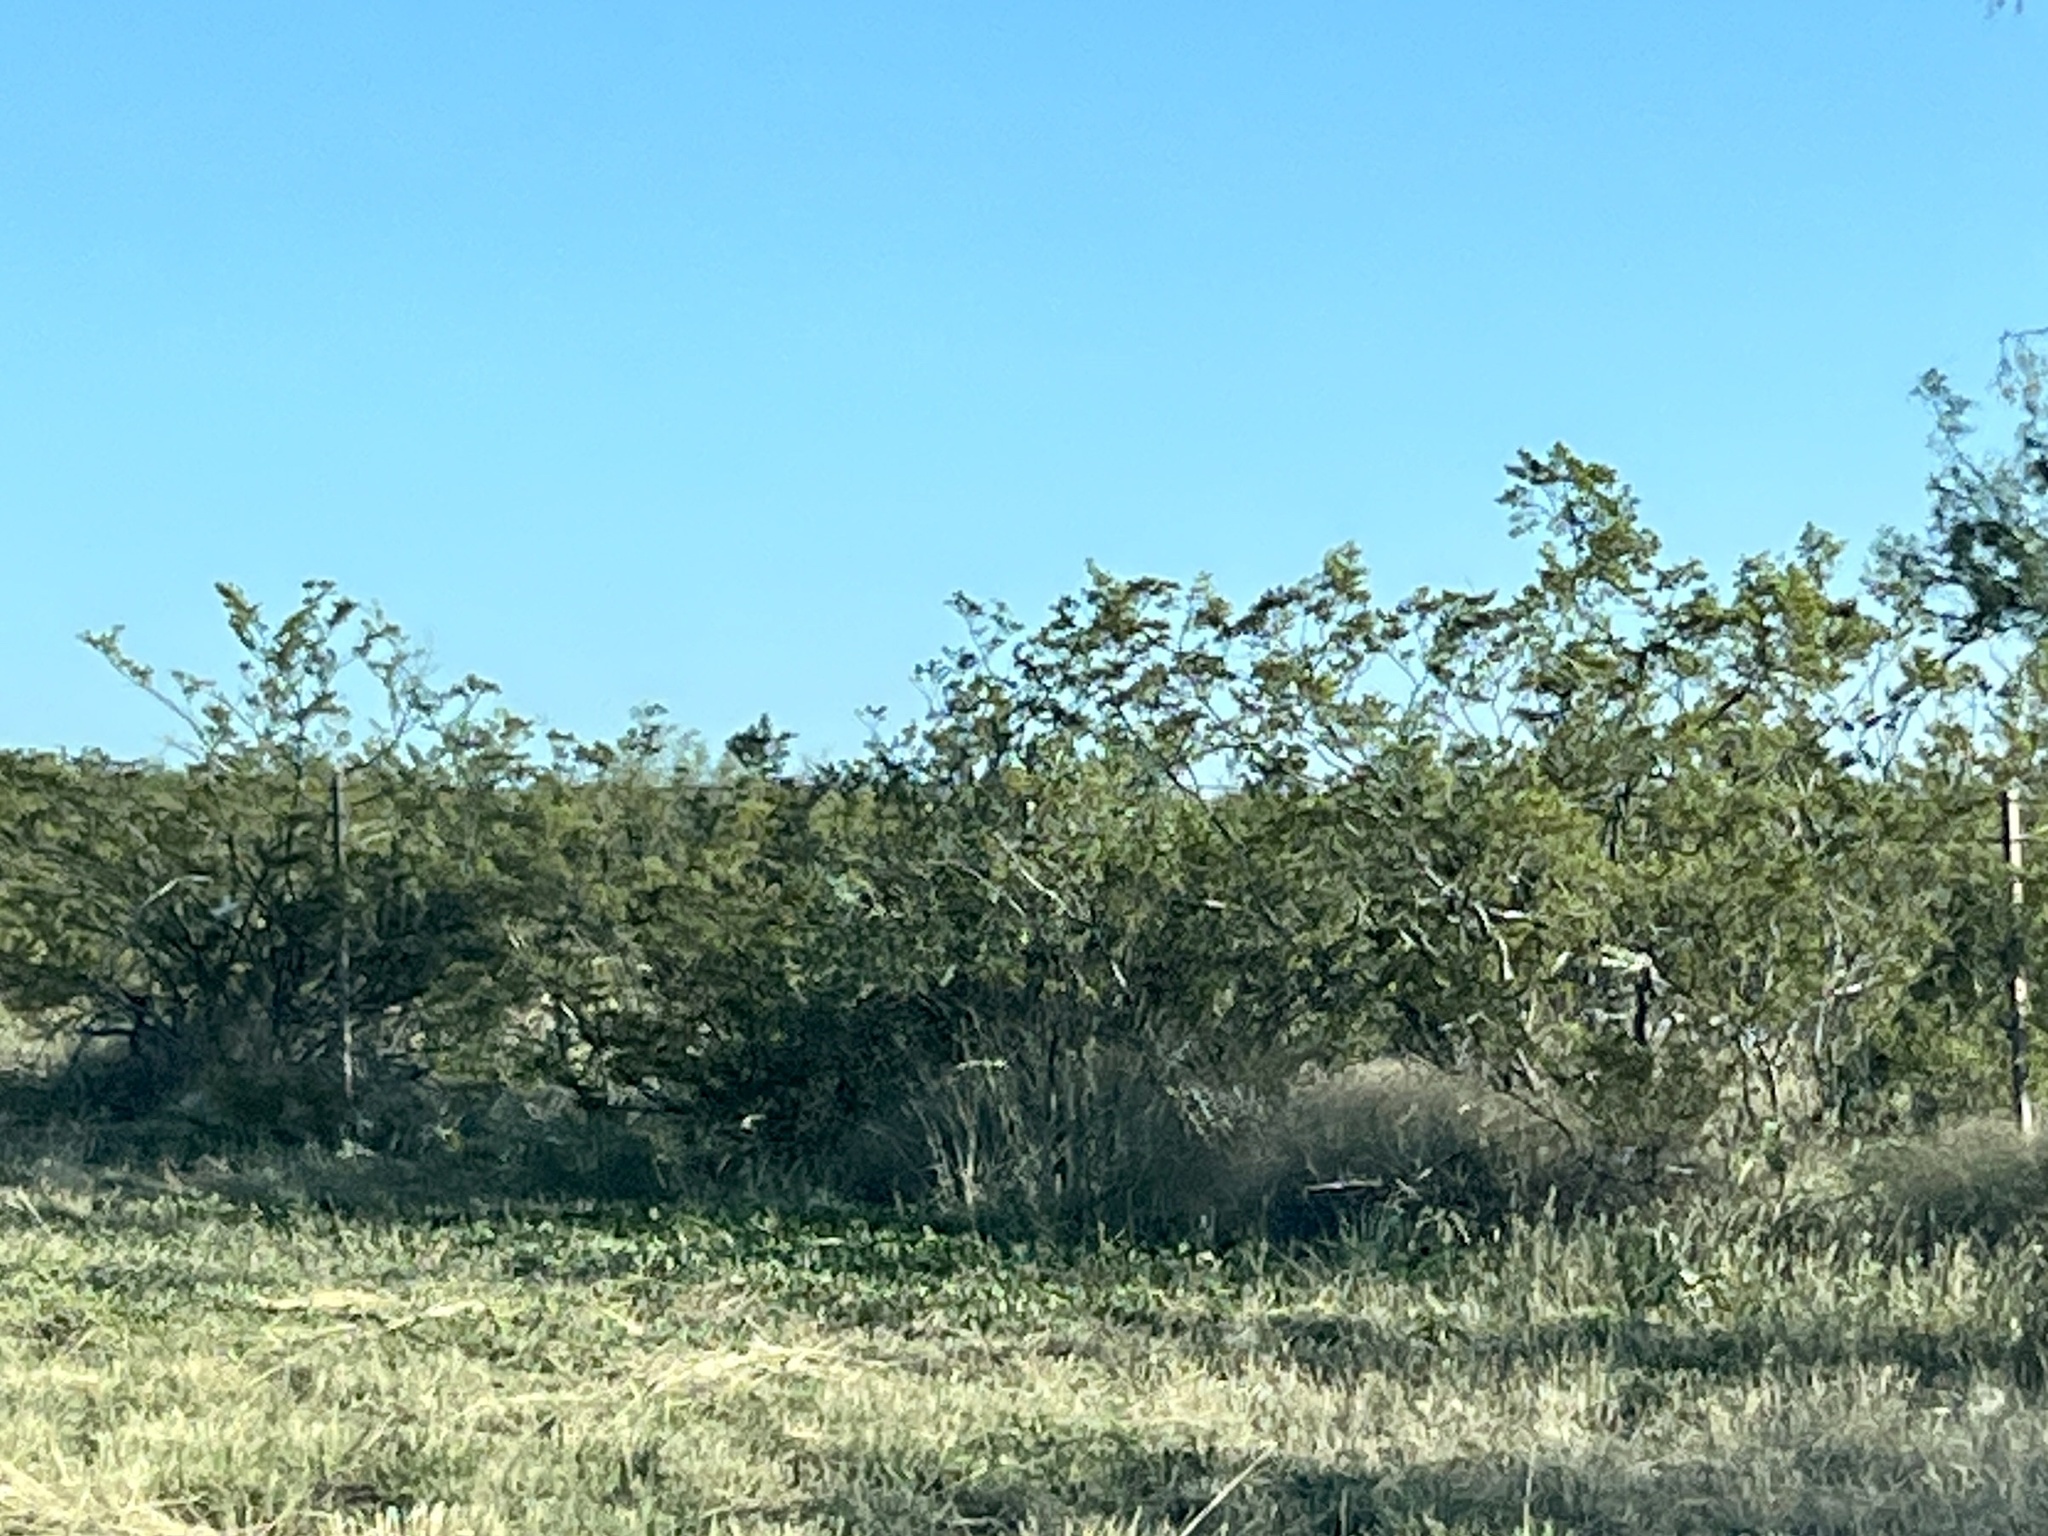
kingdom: Plantae
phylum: Tracheophyta
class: Magnoliopsida
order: Zygophyllales
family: Zygophyllaceae
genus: Larrea
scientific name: Larrea tridentata
